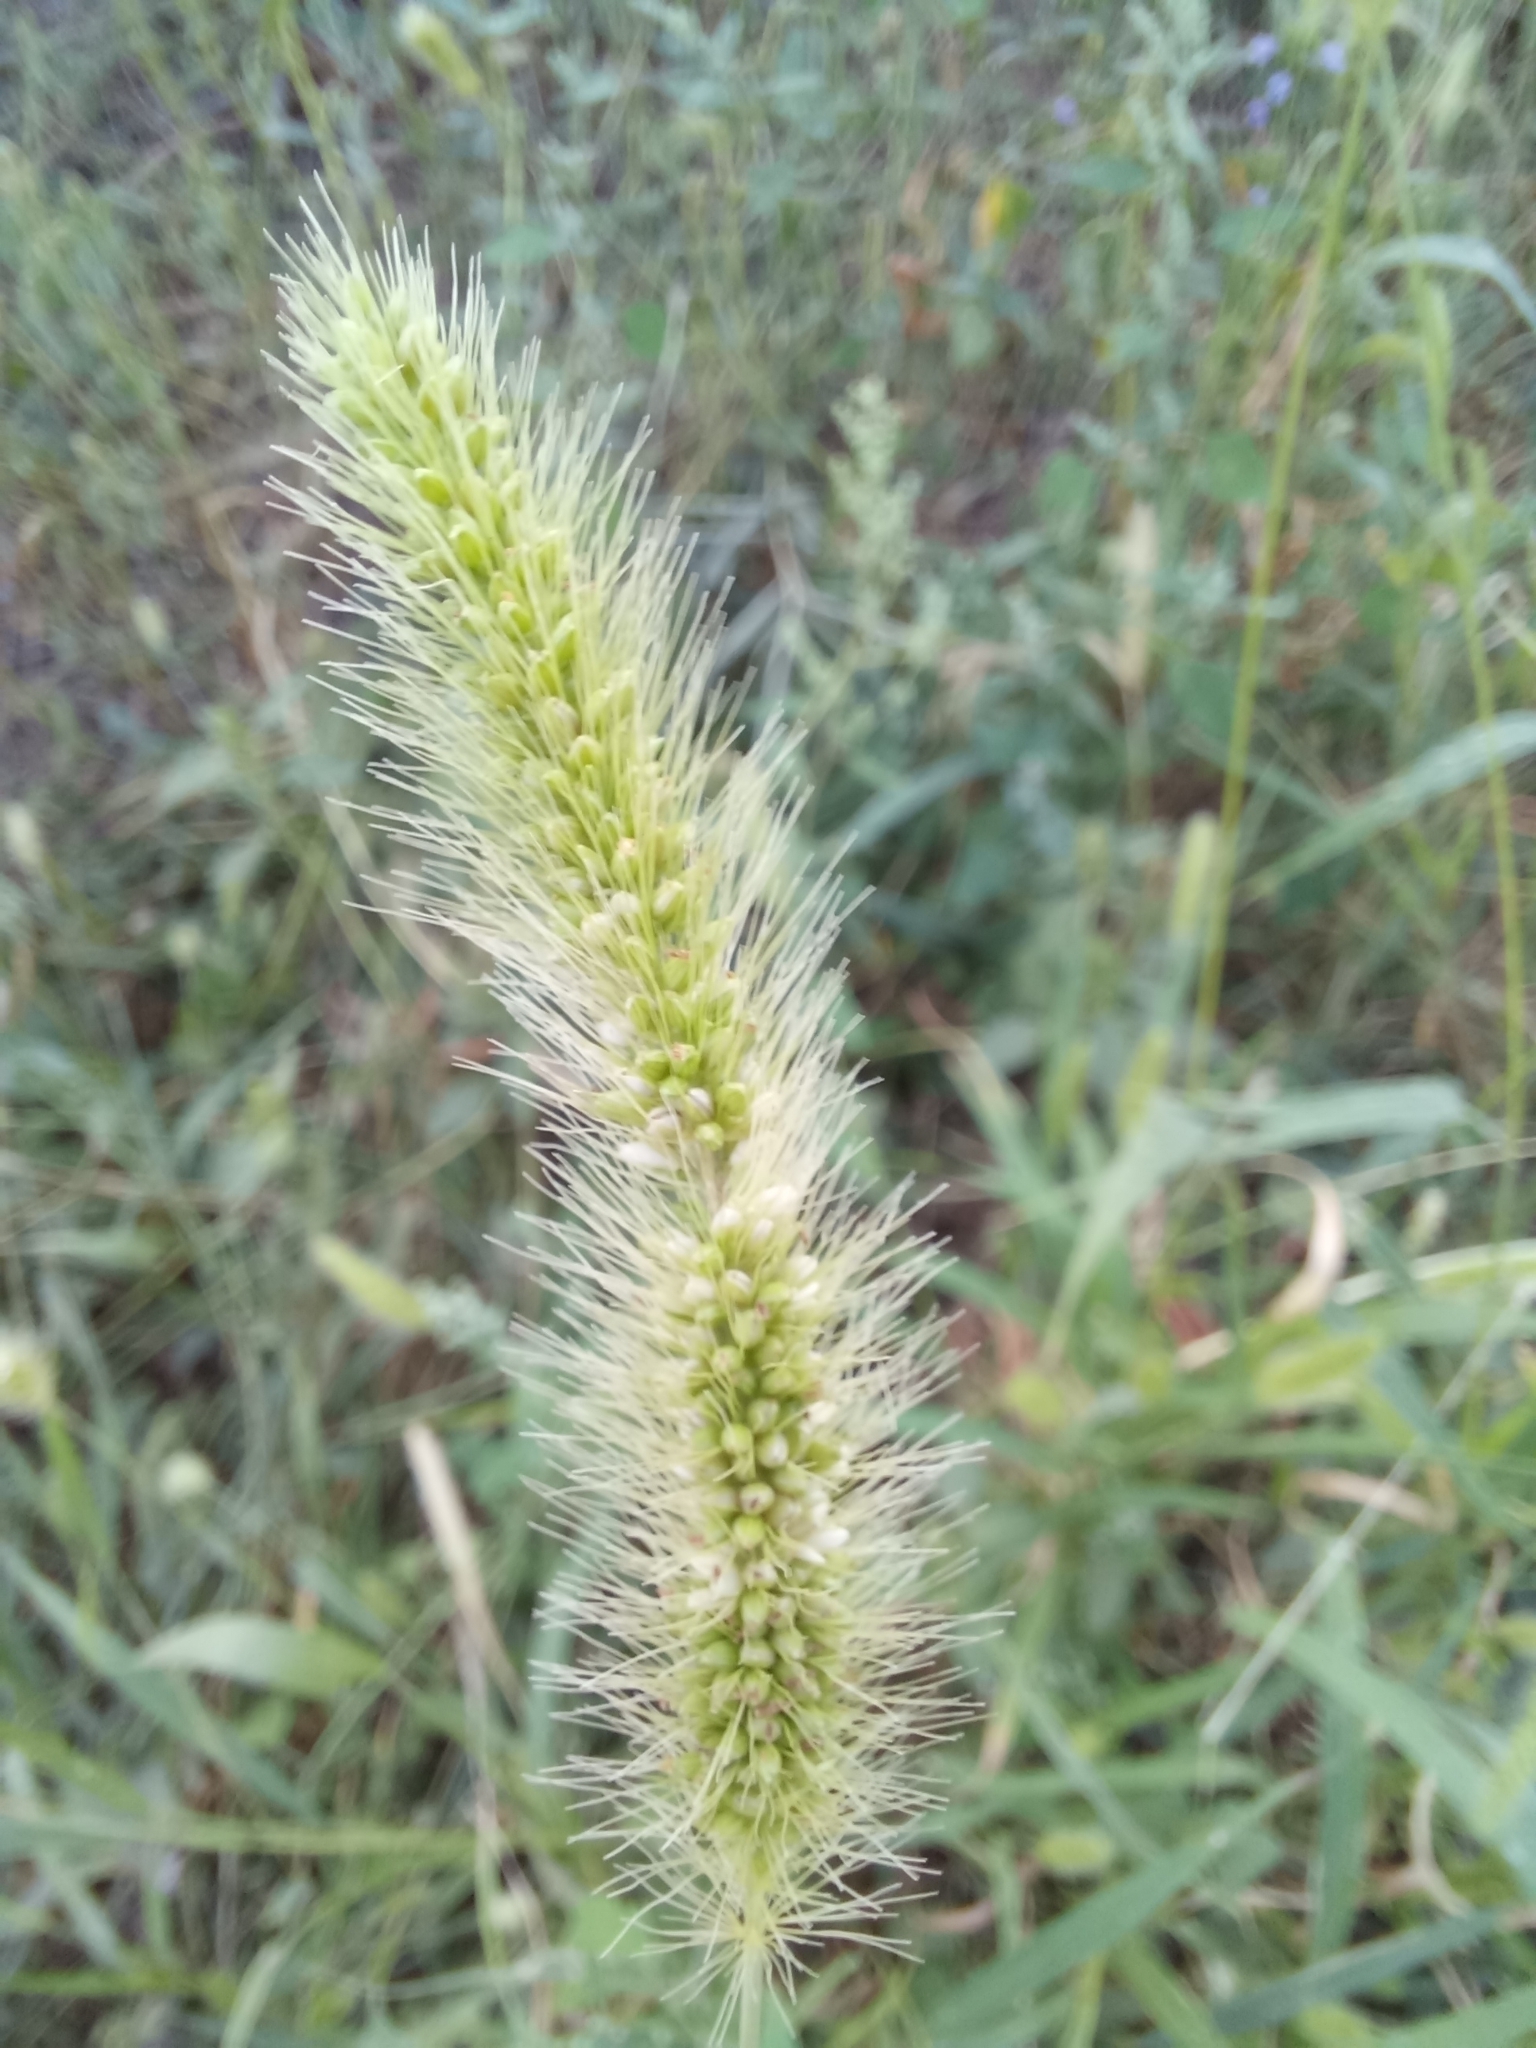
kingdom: Plantae
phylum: Tracheophyta
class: Liliopsida
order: Poales
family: Poaceae
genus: Setaria
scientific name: Setaria viridis
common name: Green bristlegrass
